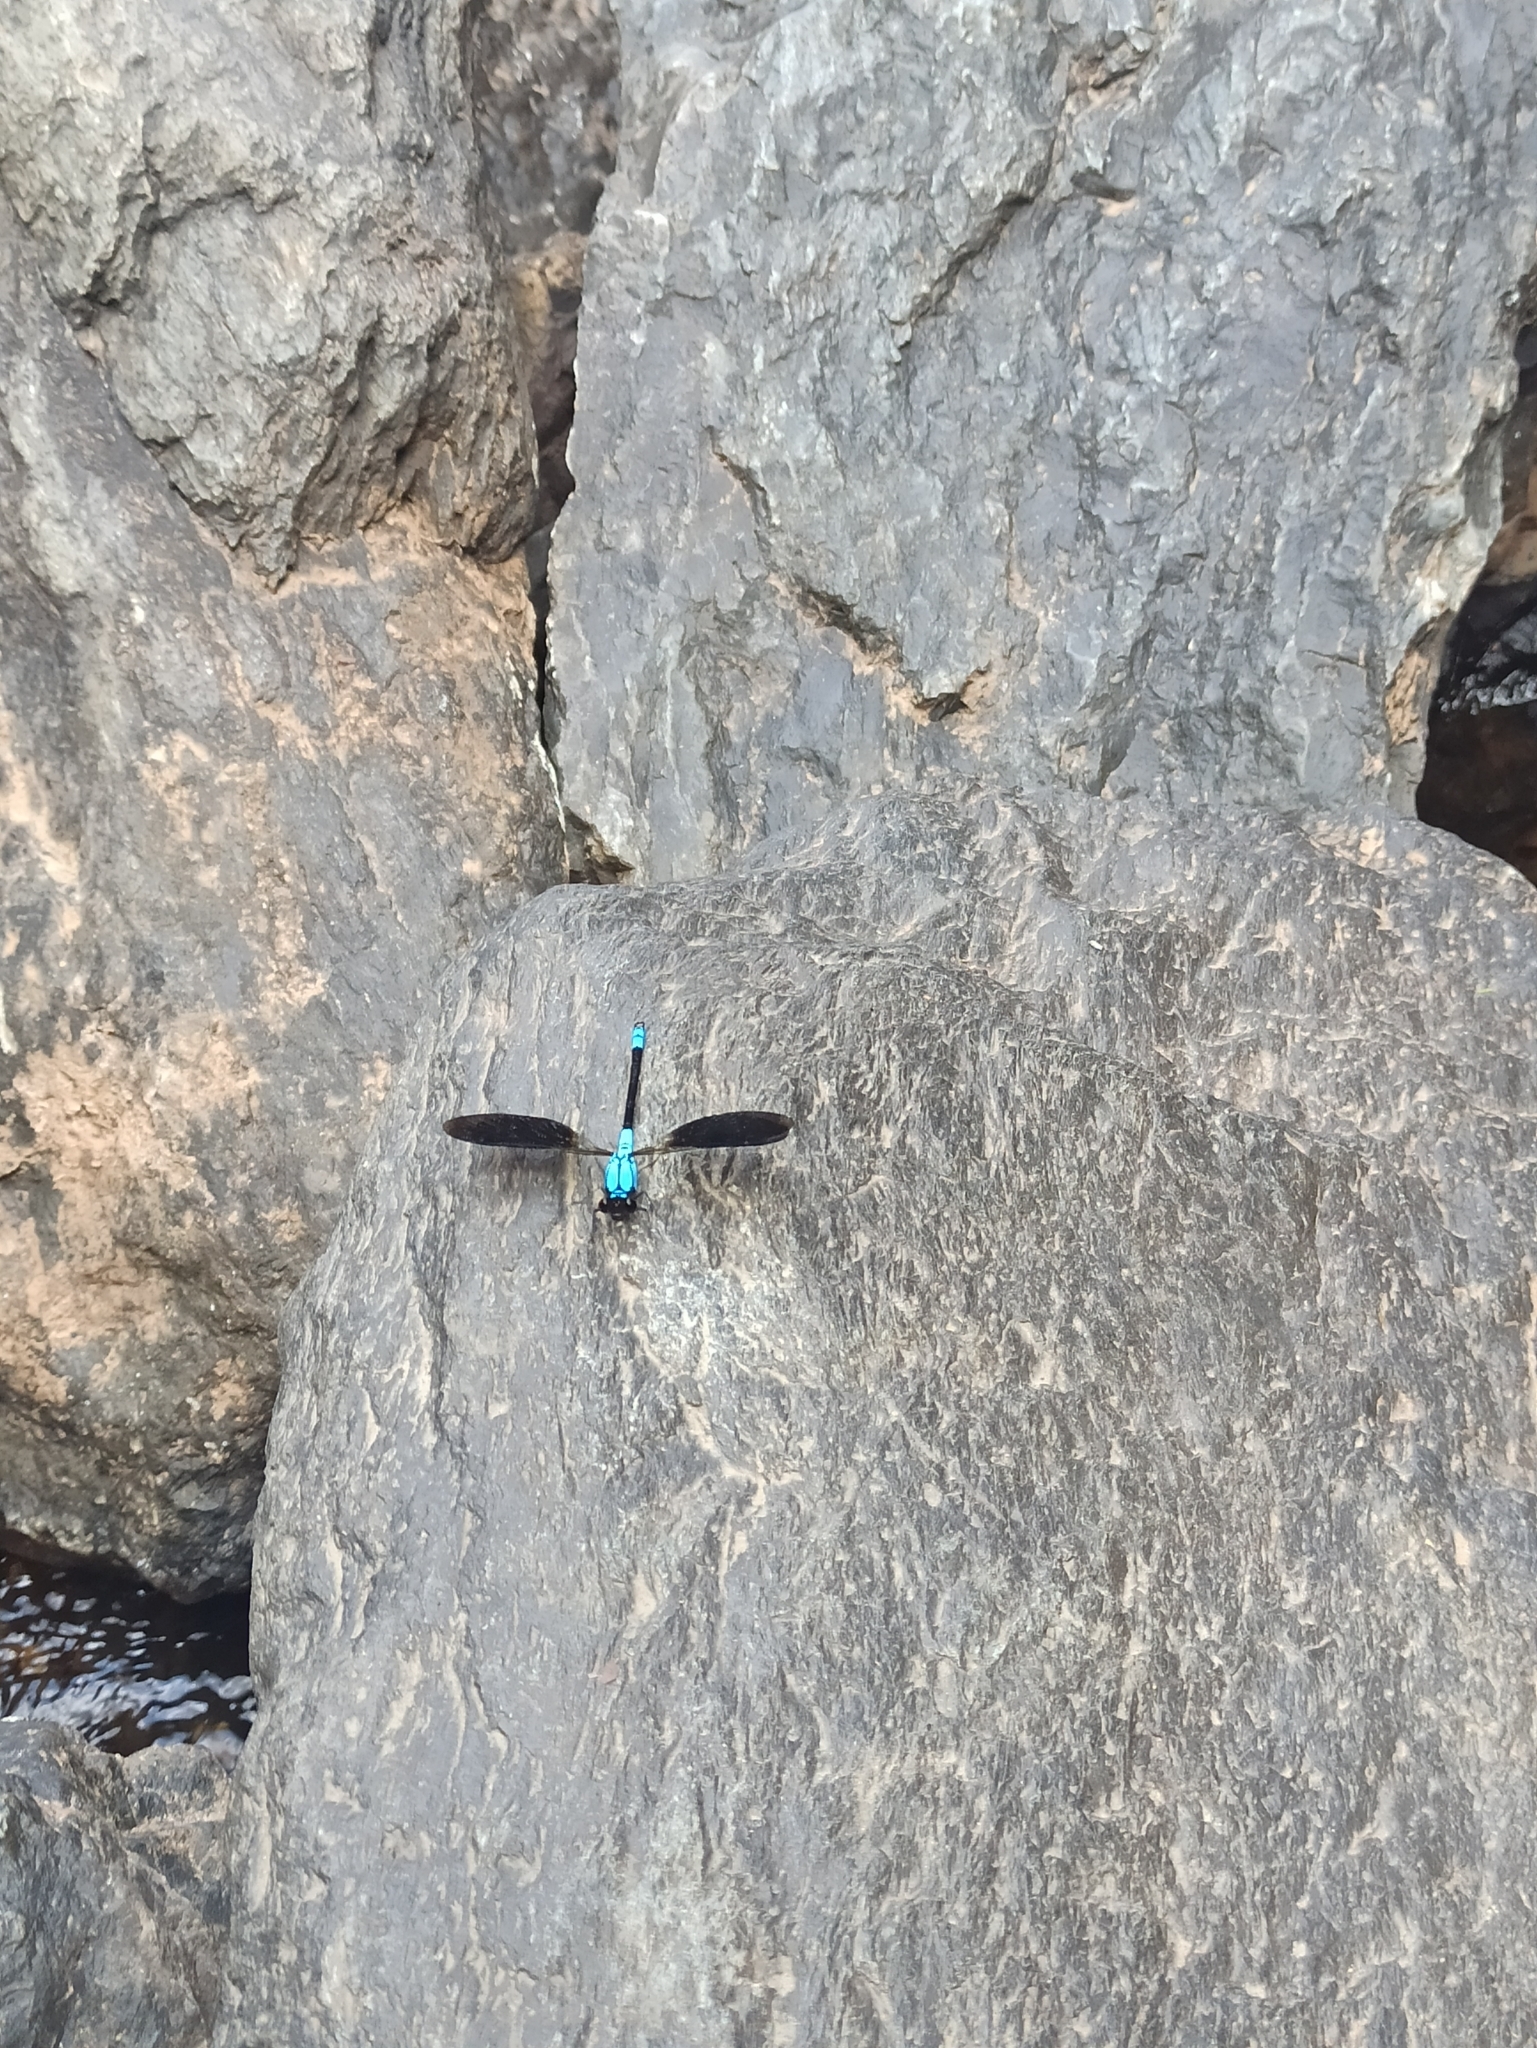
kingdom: Animalia
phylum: Arthropoda
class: Insecta
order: Odonata
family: Lestoideidae
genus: Diphlebia
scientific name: Diphlebia euphoeoides
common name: Tropical rockmaster
